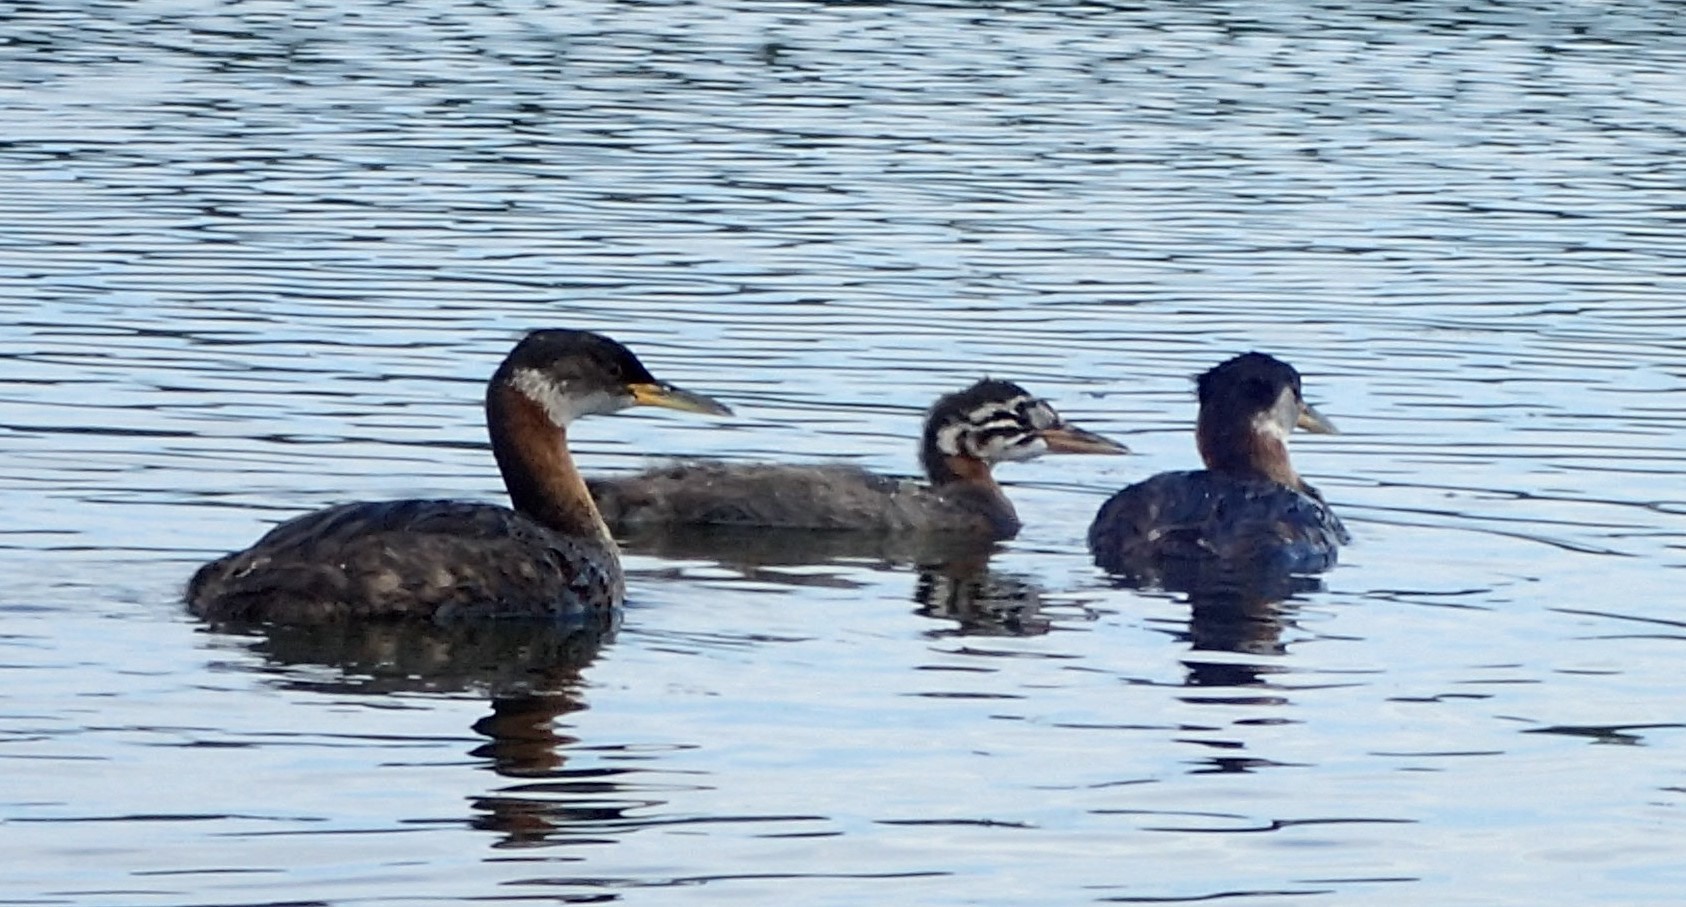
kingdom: Animalia
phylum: Chordata
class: Aves
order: Podicipediformes
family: Podicipedidae
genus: Podiceps
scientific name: Podiceps grisegena
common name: Red-necked grebe
